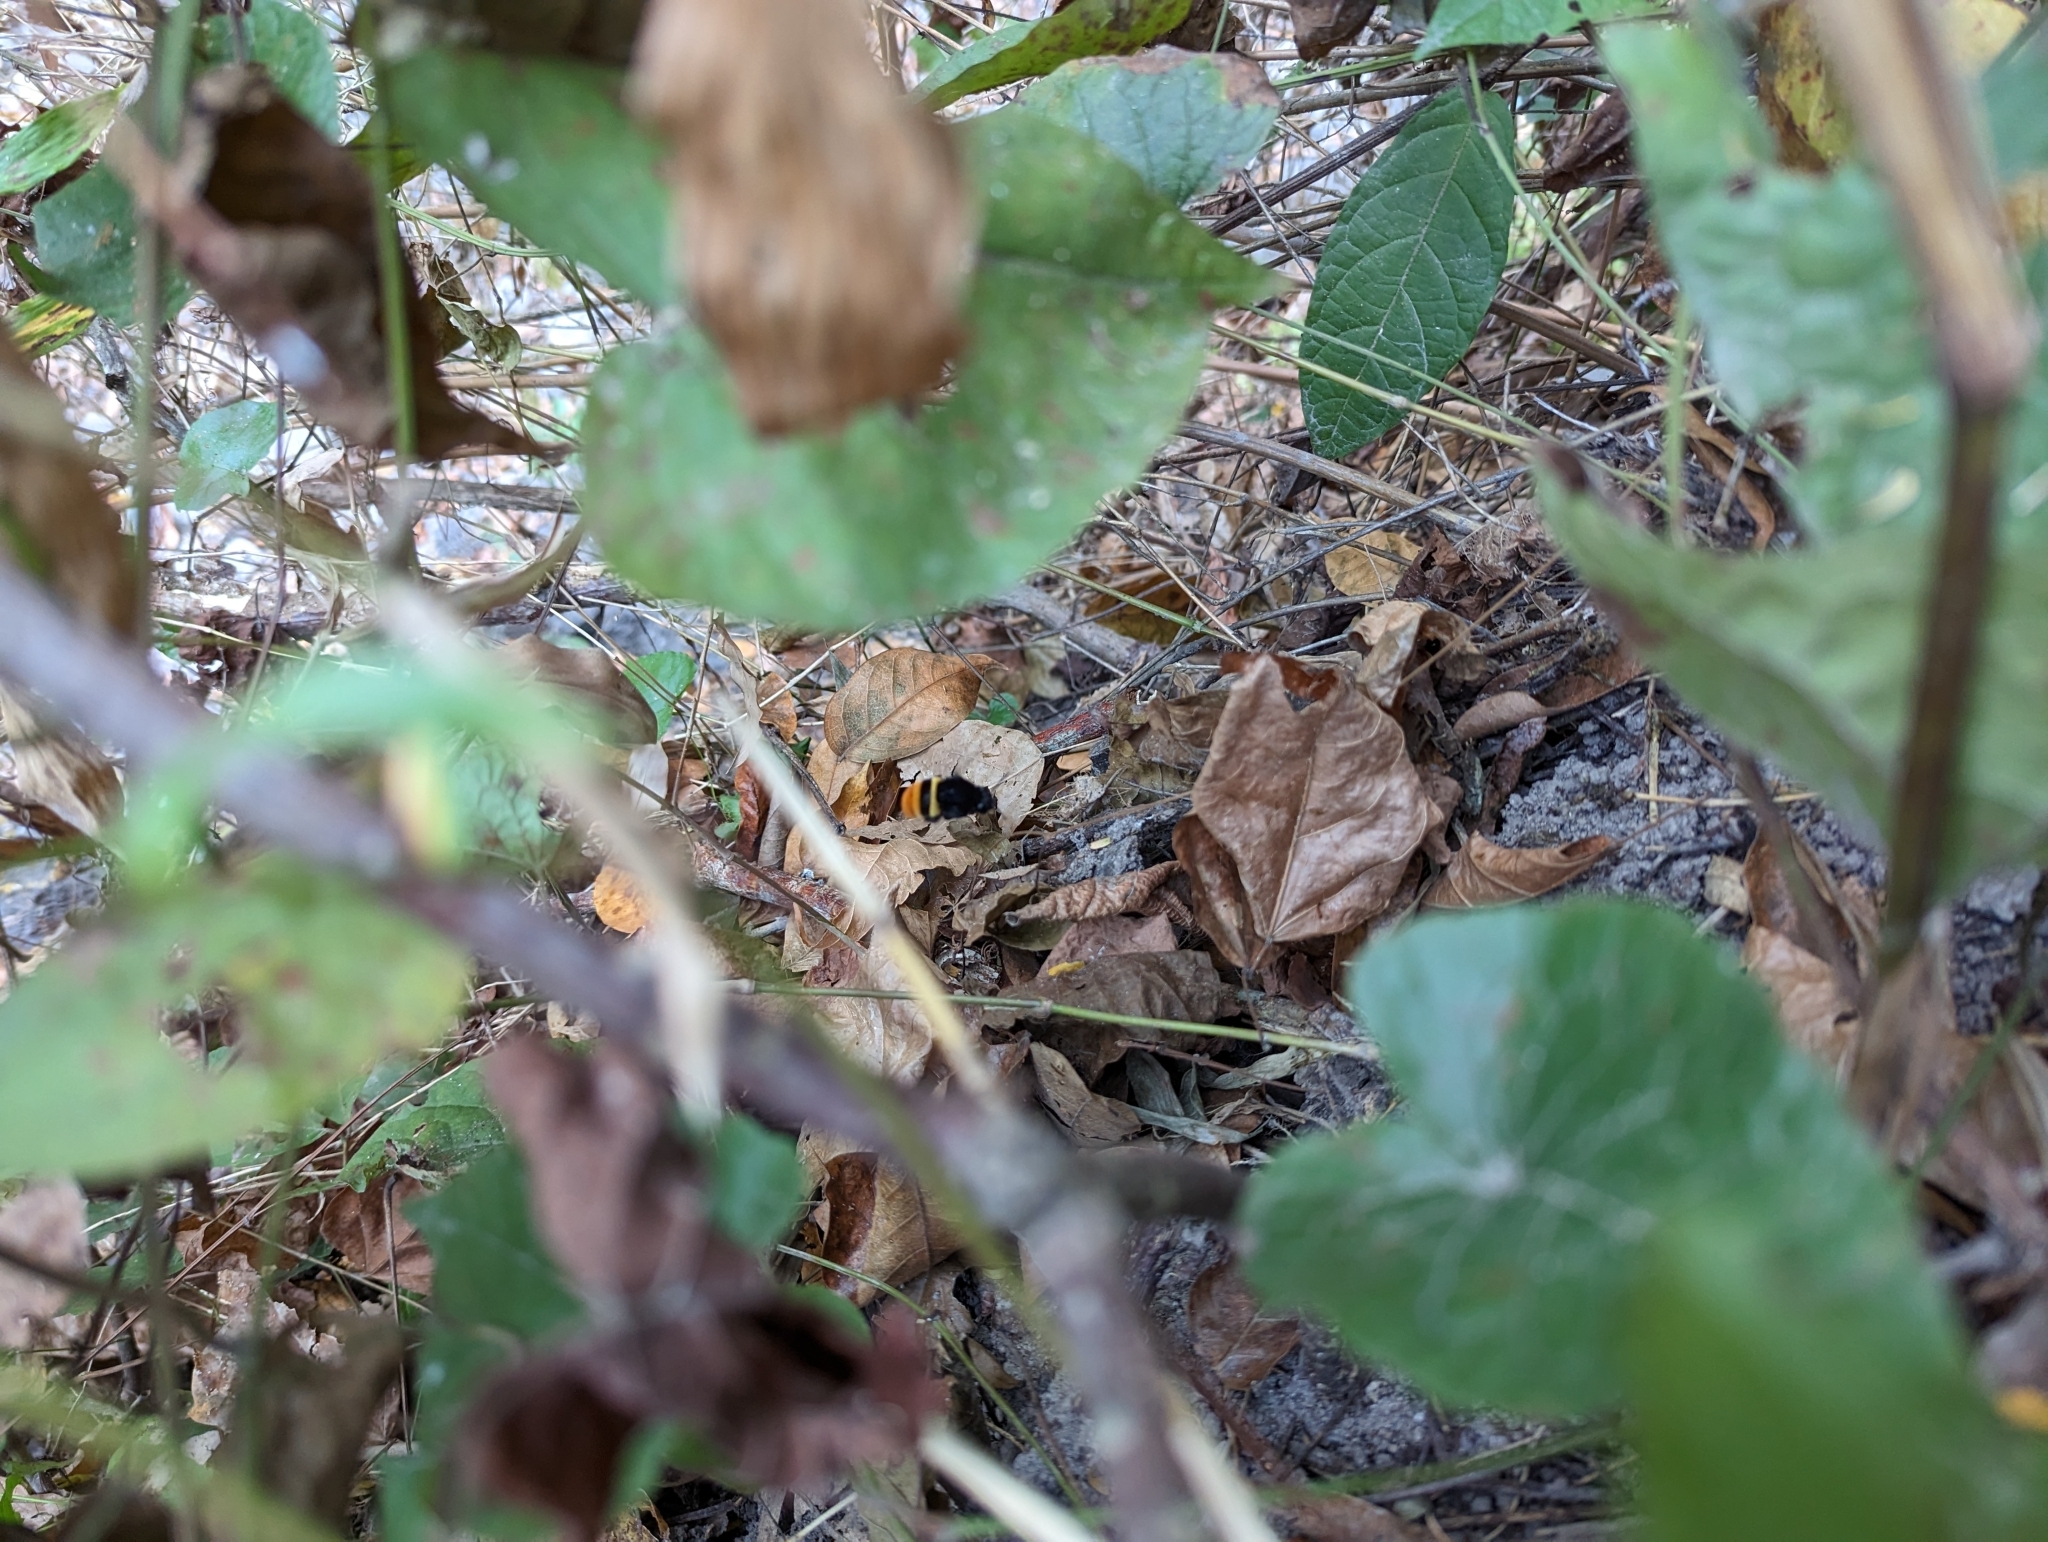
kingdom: Animalia
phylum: Arthropoda
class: Insecta
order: Hymenoptera
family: Apidae
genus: Eulaema
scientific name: Eulaema cingulata
